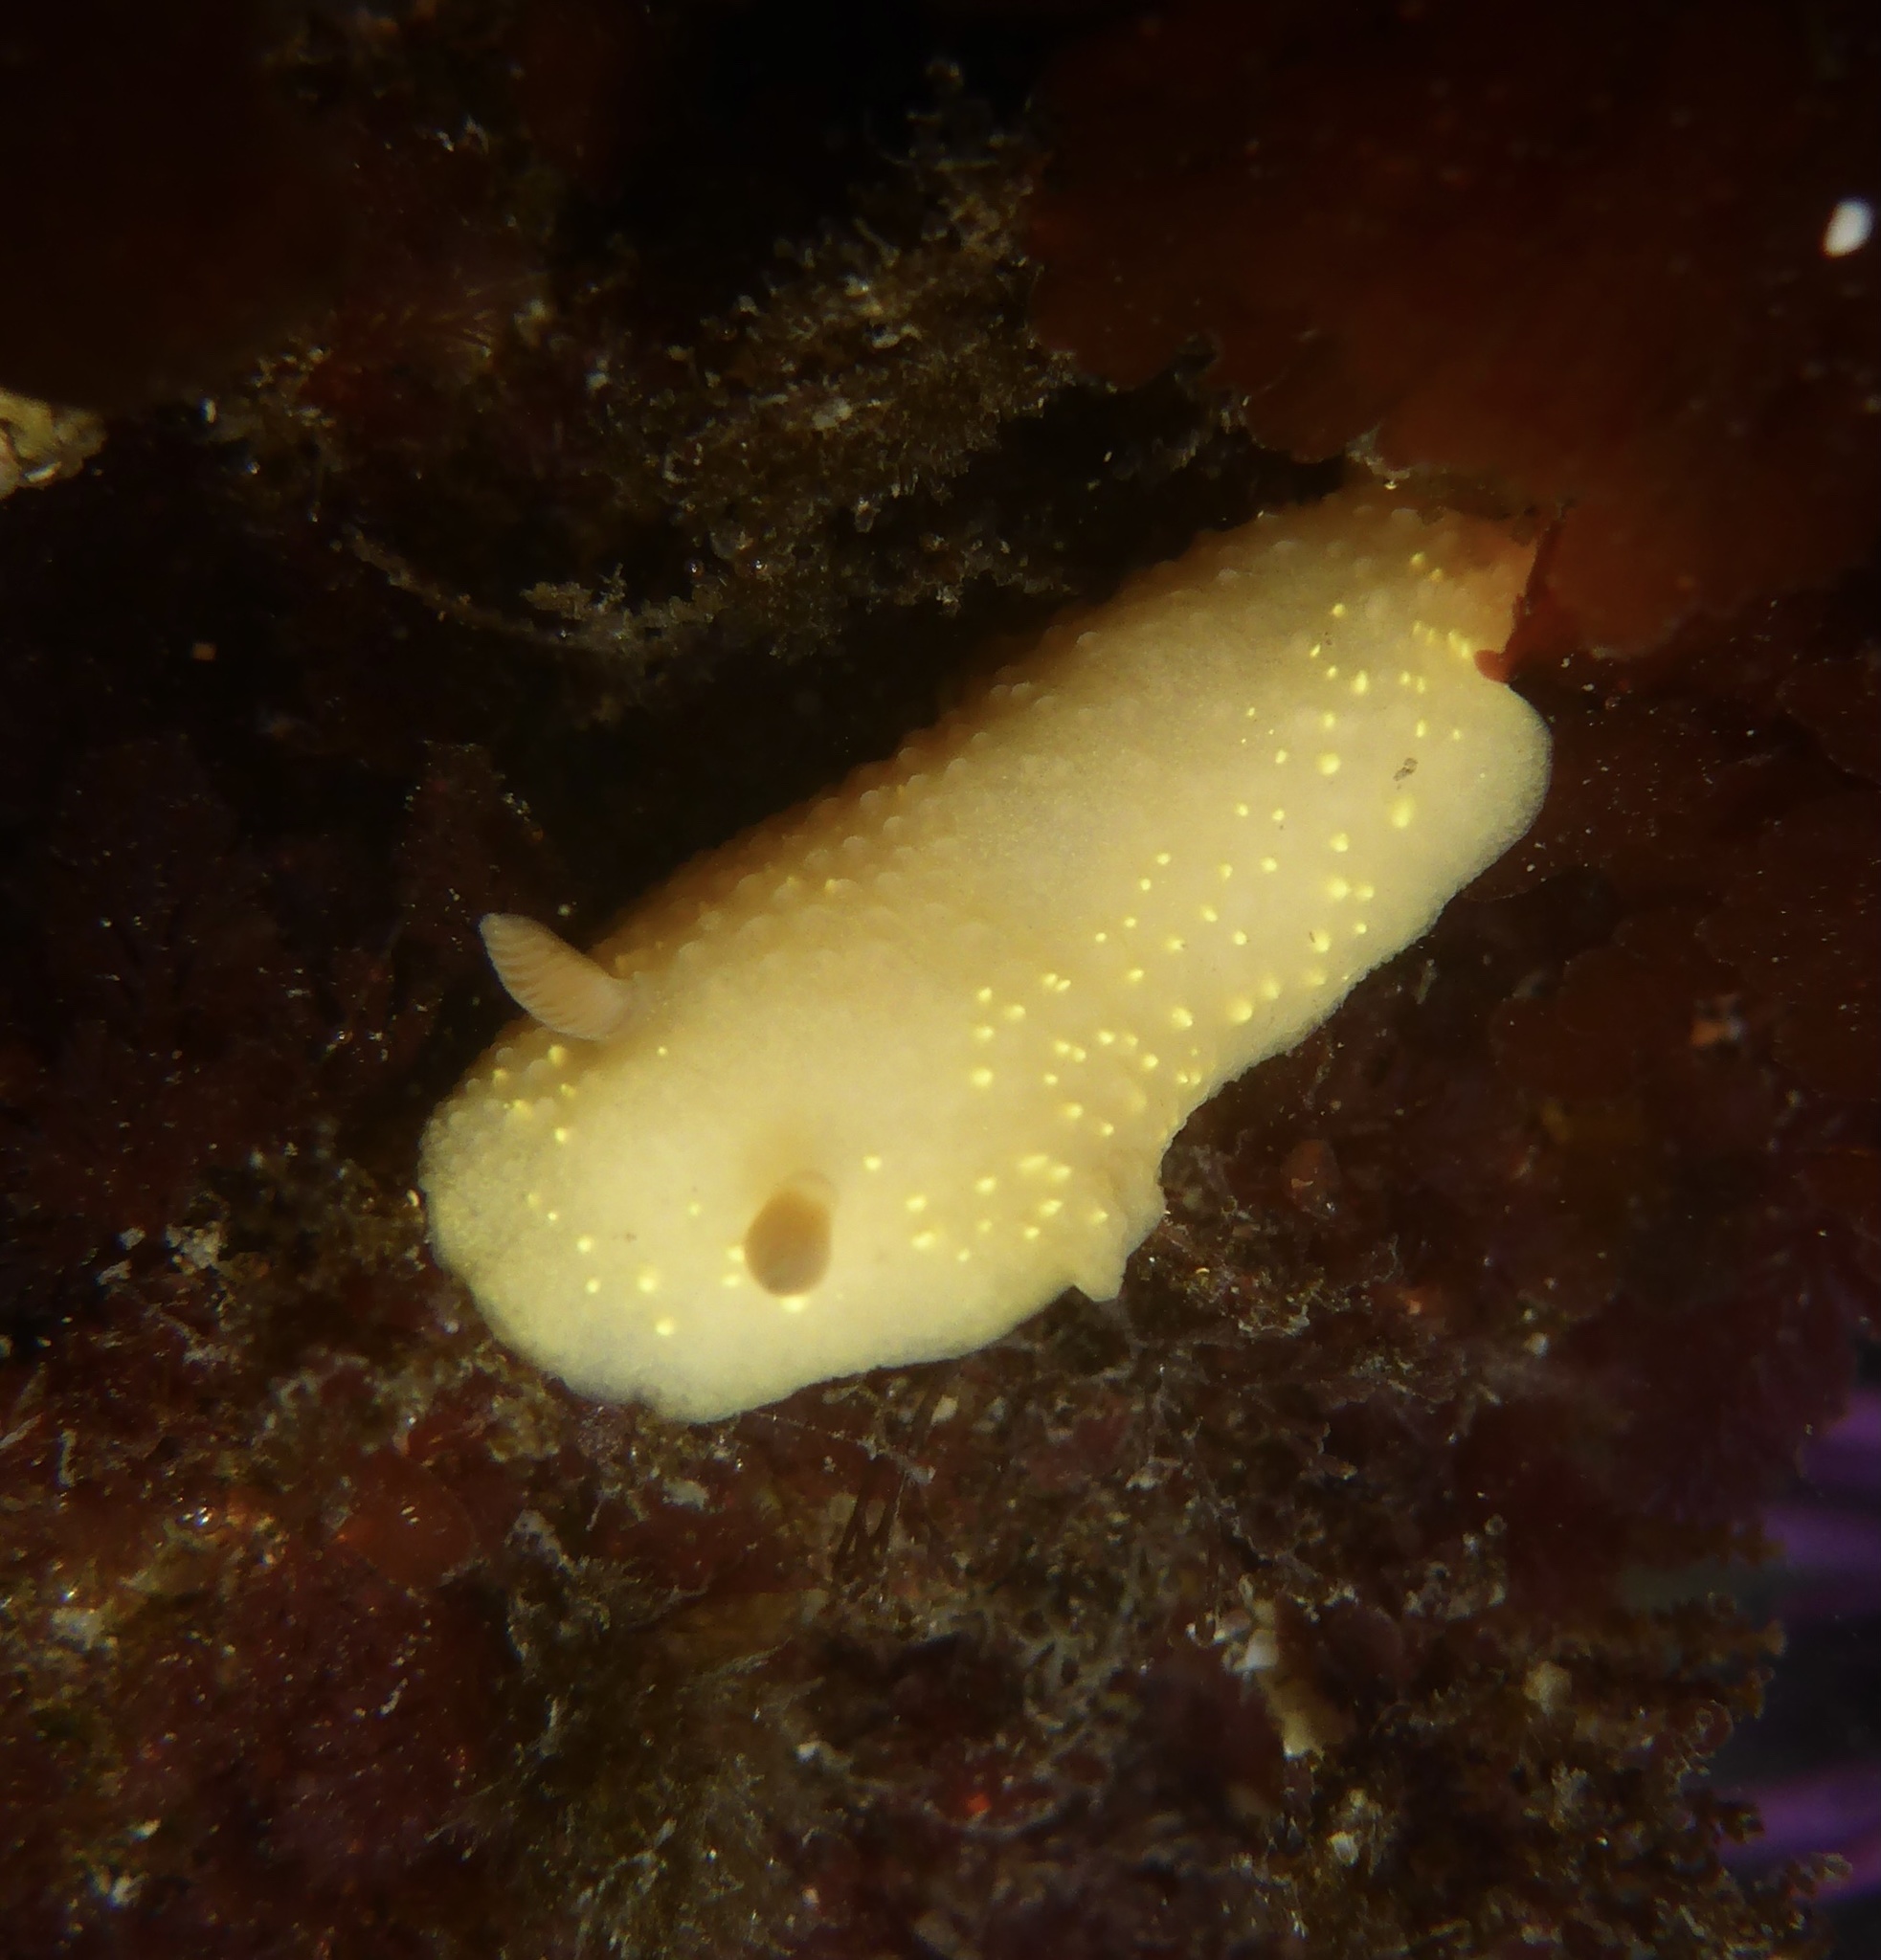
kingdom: Animalia
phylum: Mollusca
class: Gastropoda
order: Nudibranchia
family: Cadlinidae
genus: Cadlina
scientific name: Cadlina modesta
